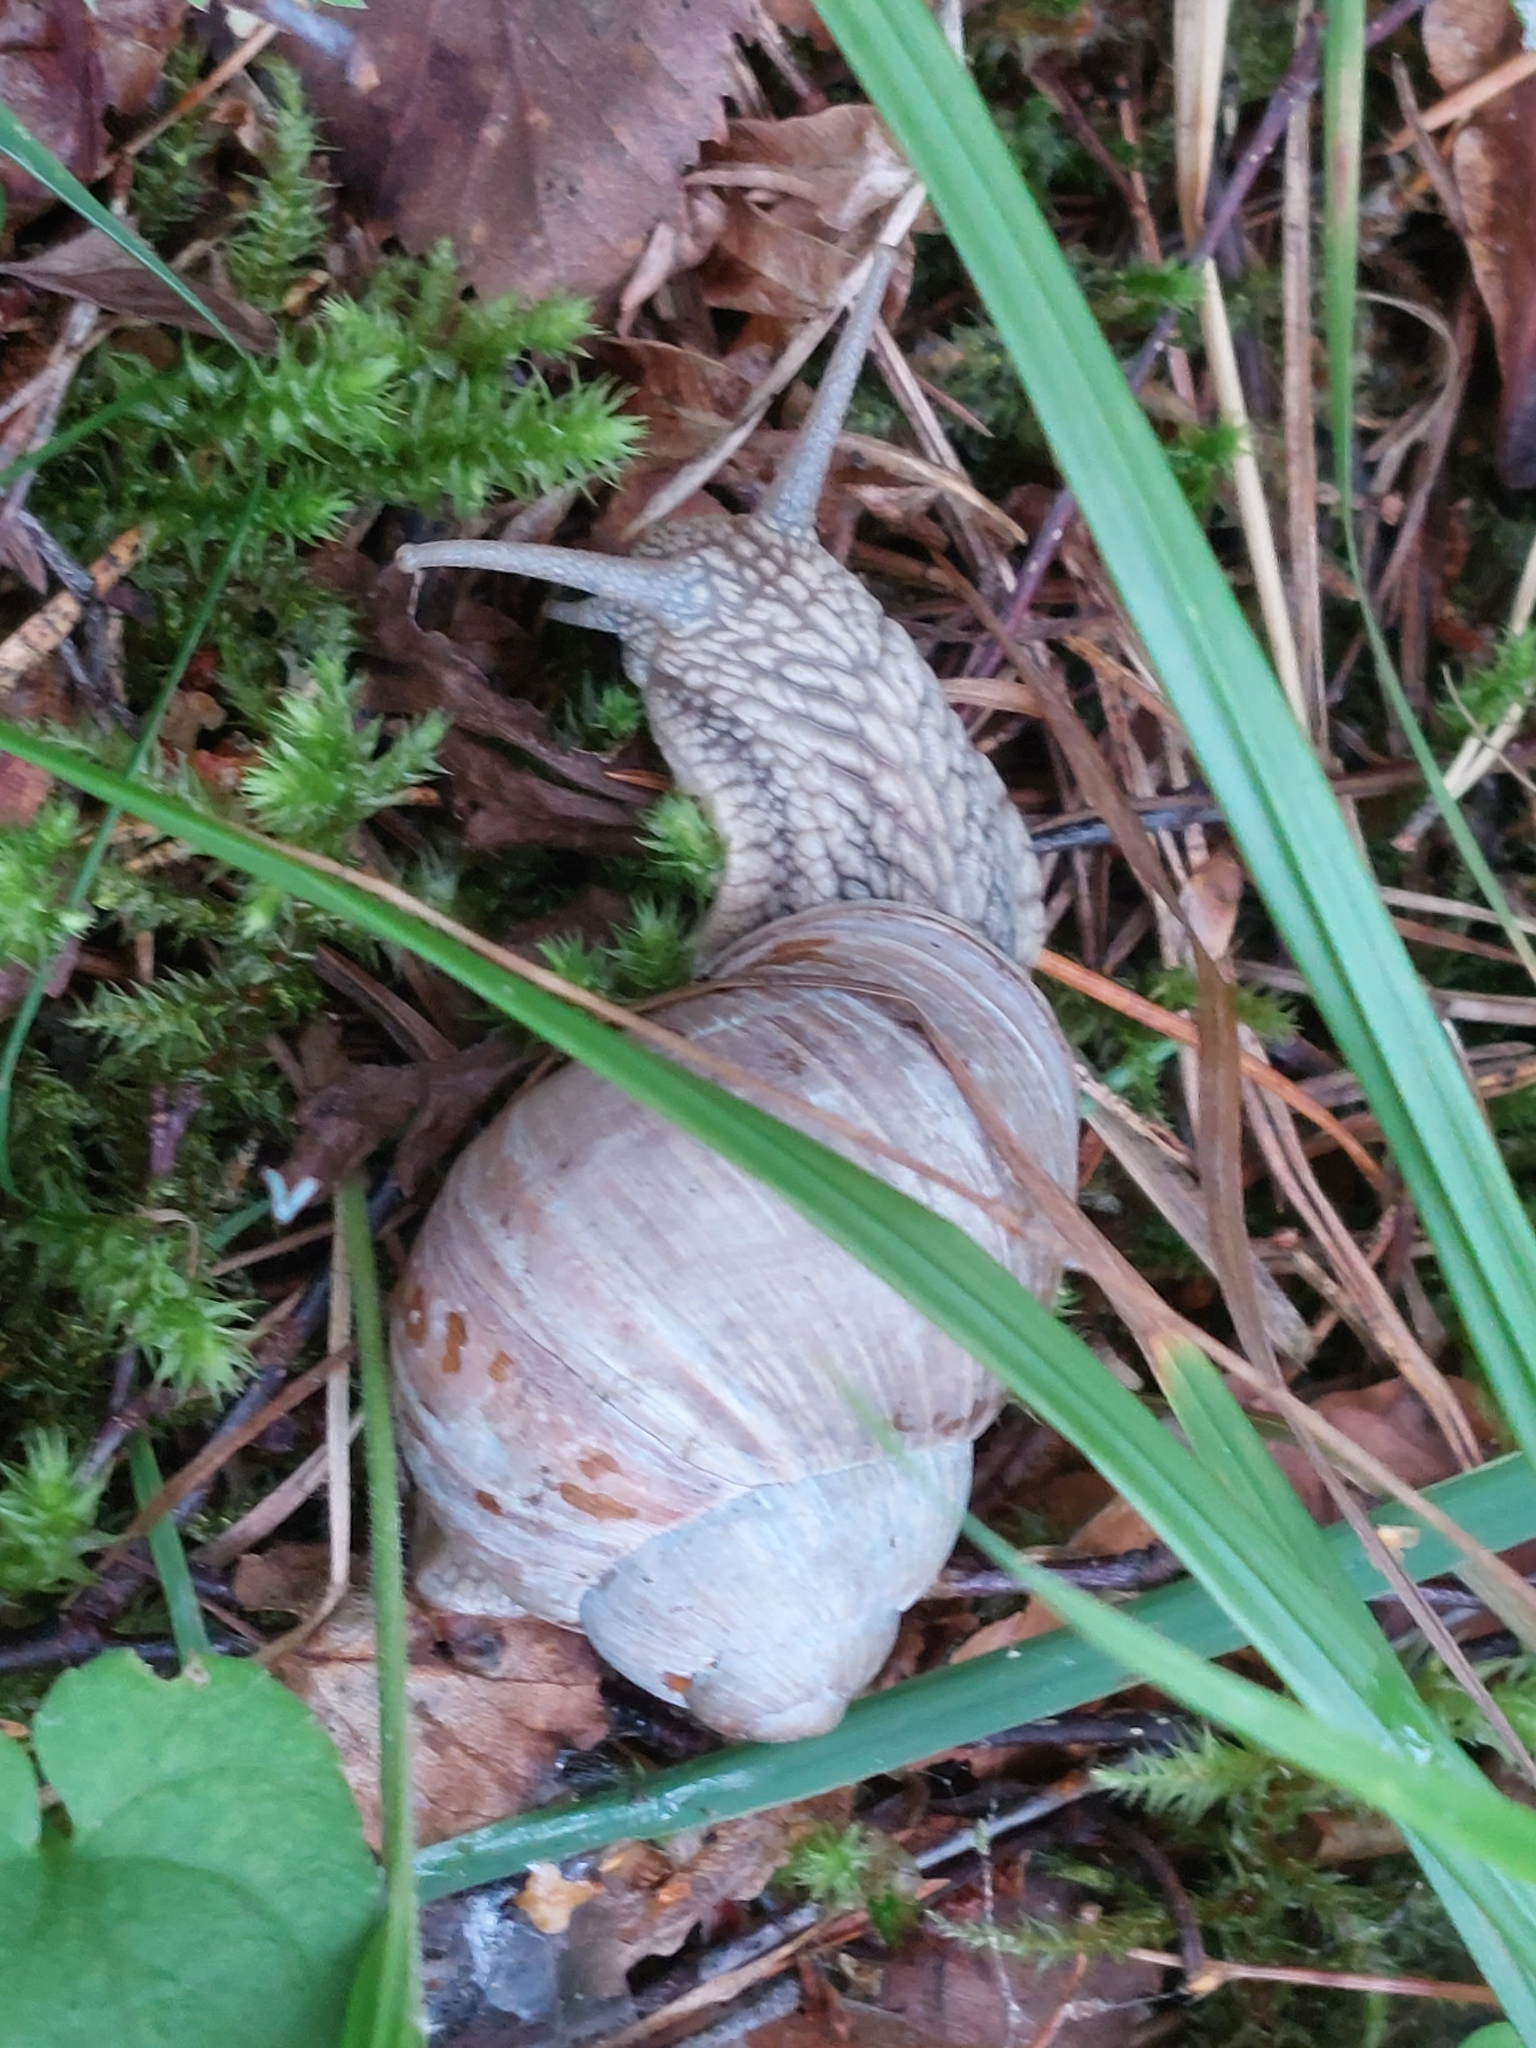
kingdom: Animalia
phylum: Mollusca
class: Gastropoda
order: Stylommatophora
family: Helicidae
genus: Helix
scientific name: Helix pomatia
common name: Roman snail
